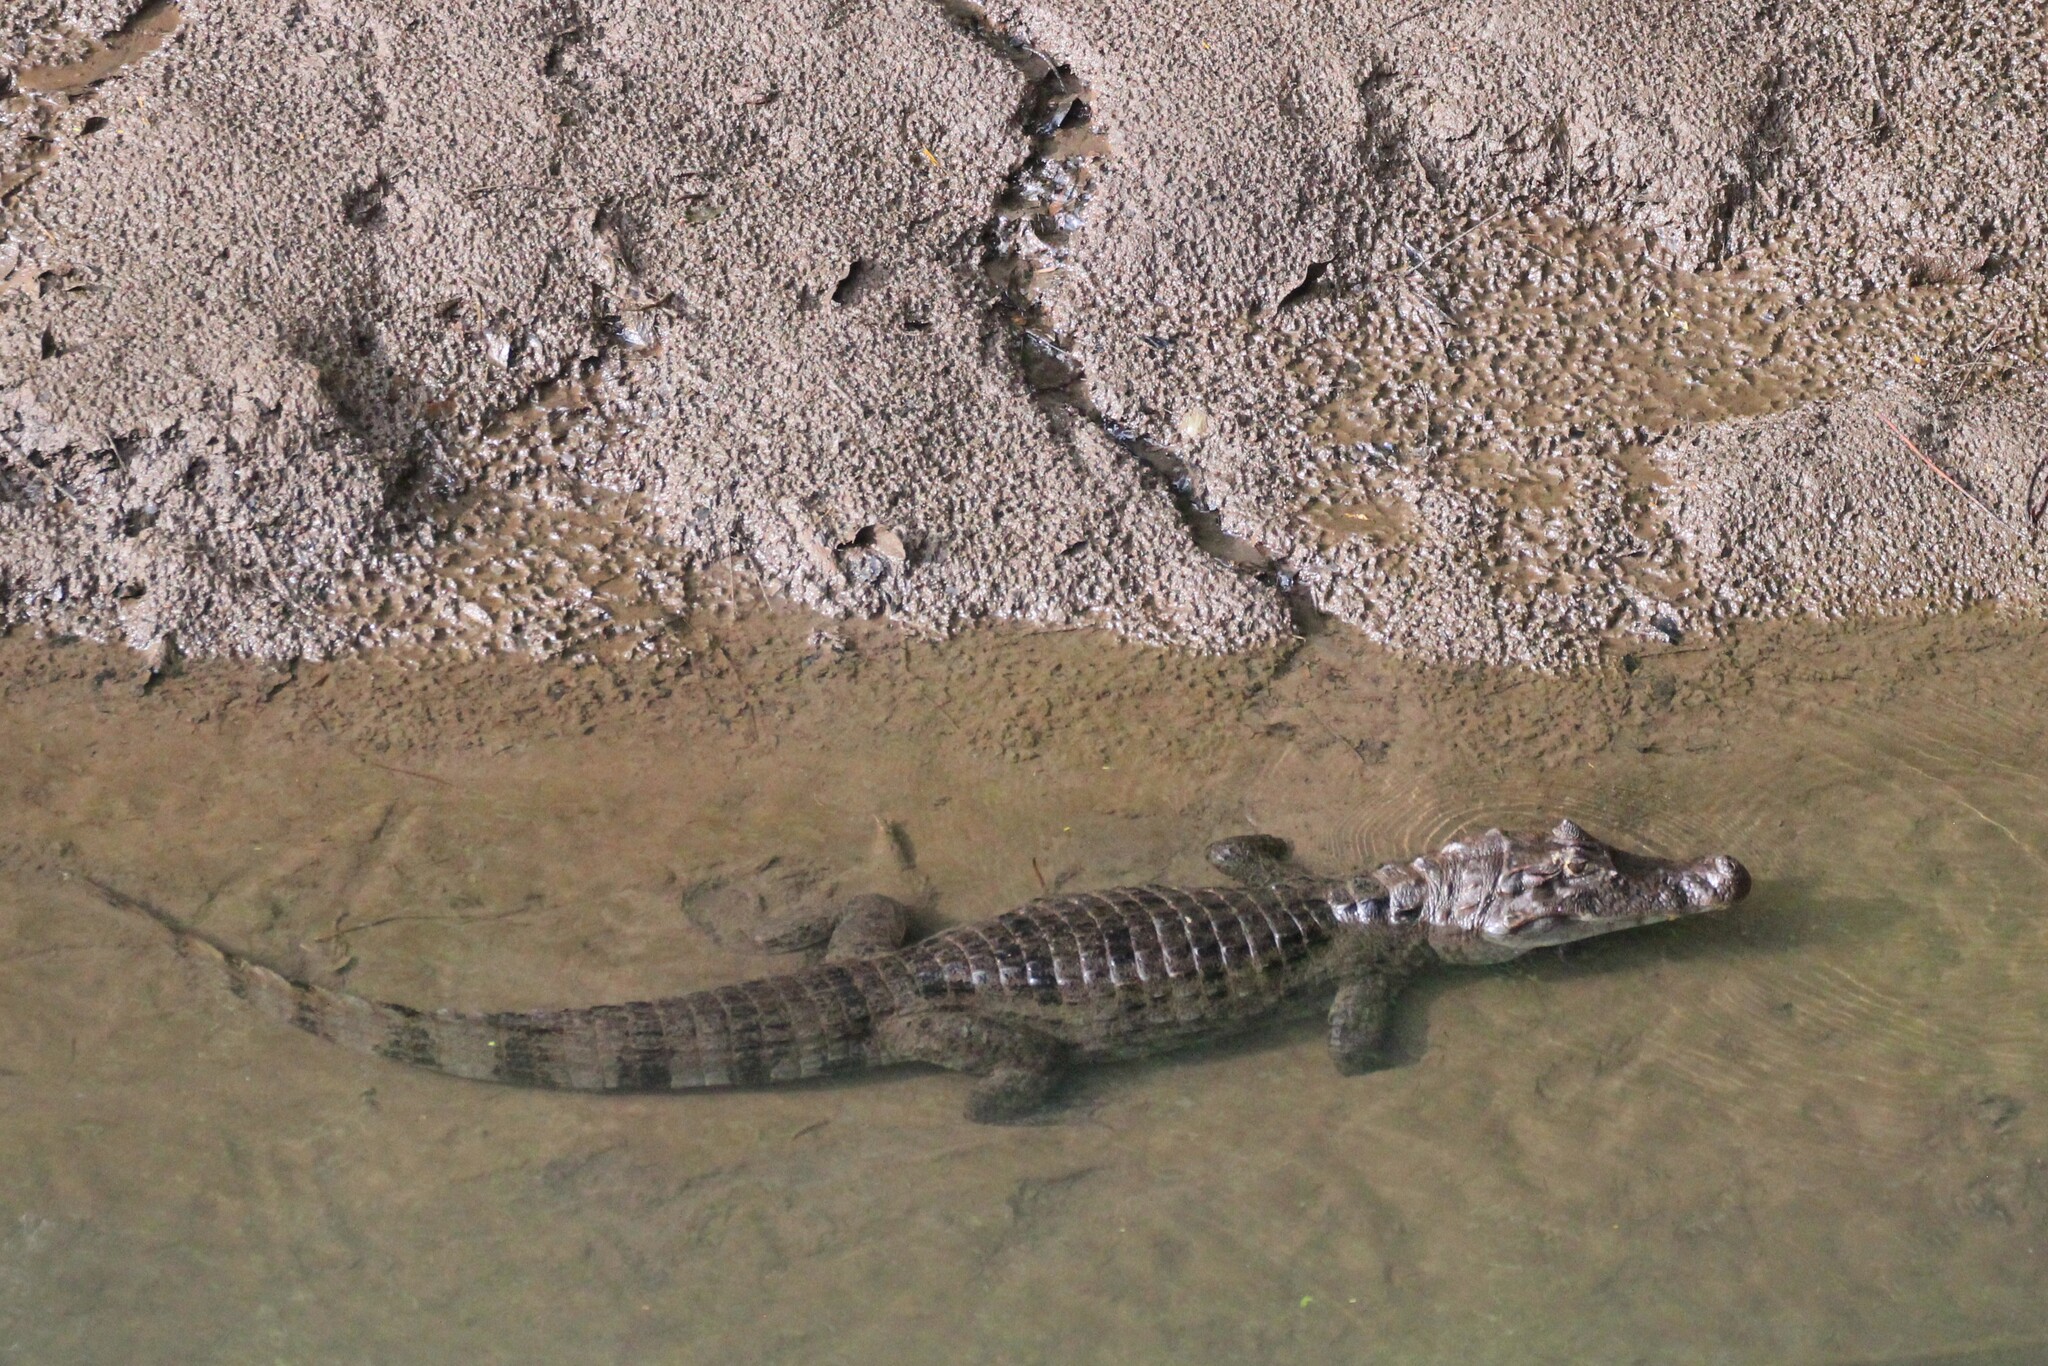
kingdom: Animalia
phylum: Chordata
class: Crocodylia
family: Alligatoridae
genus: Caiman
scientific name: Caiman crocodilus
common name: Common caiman
